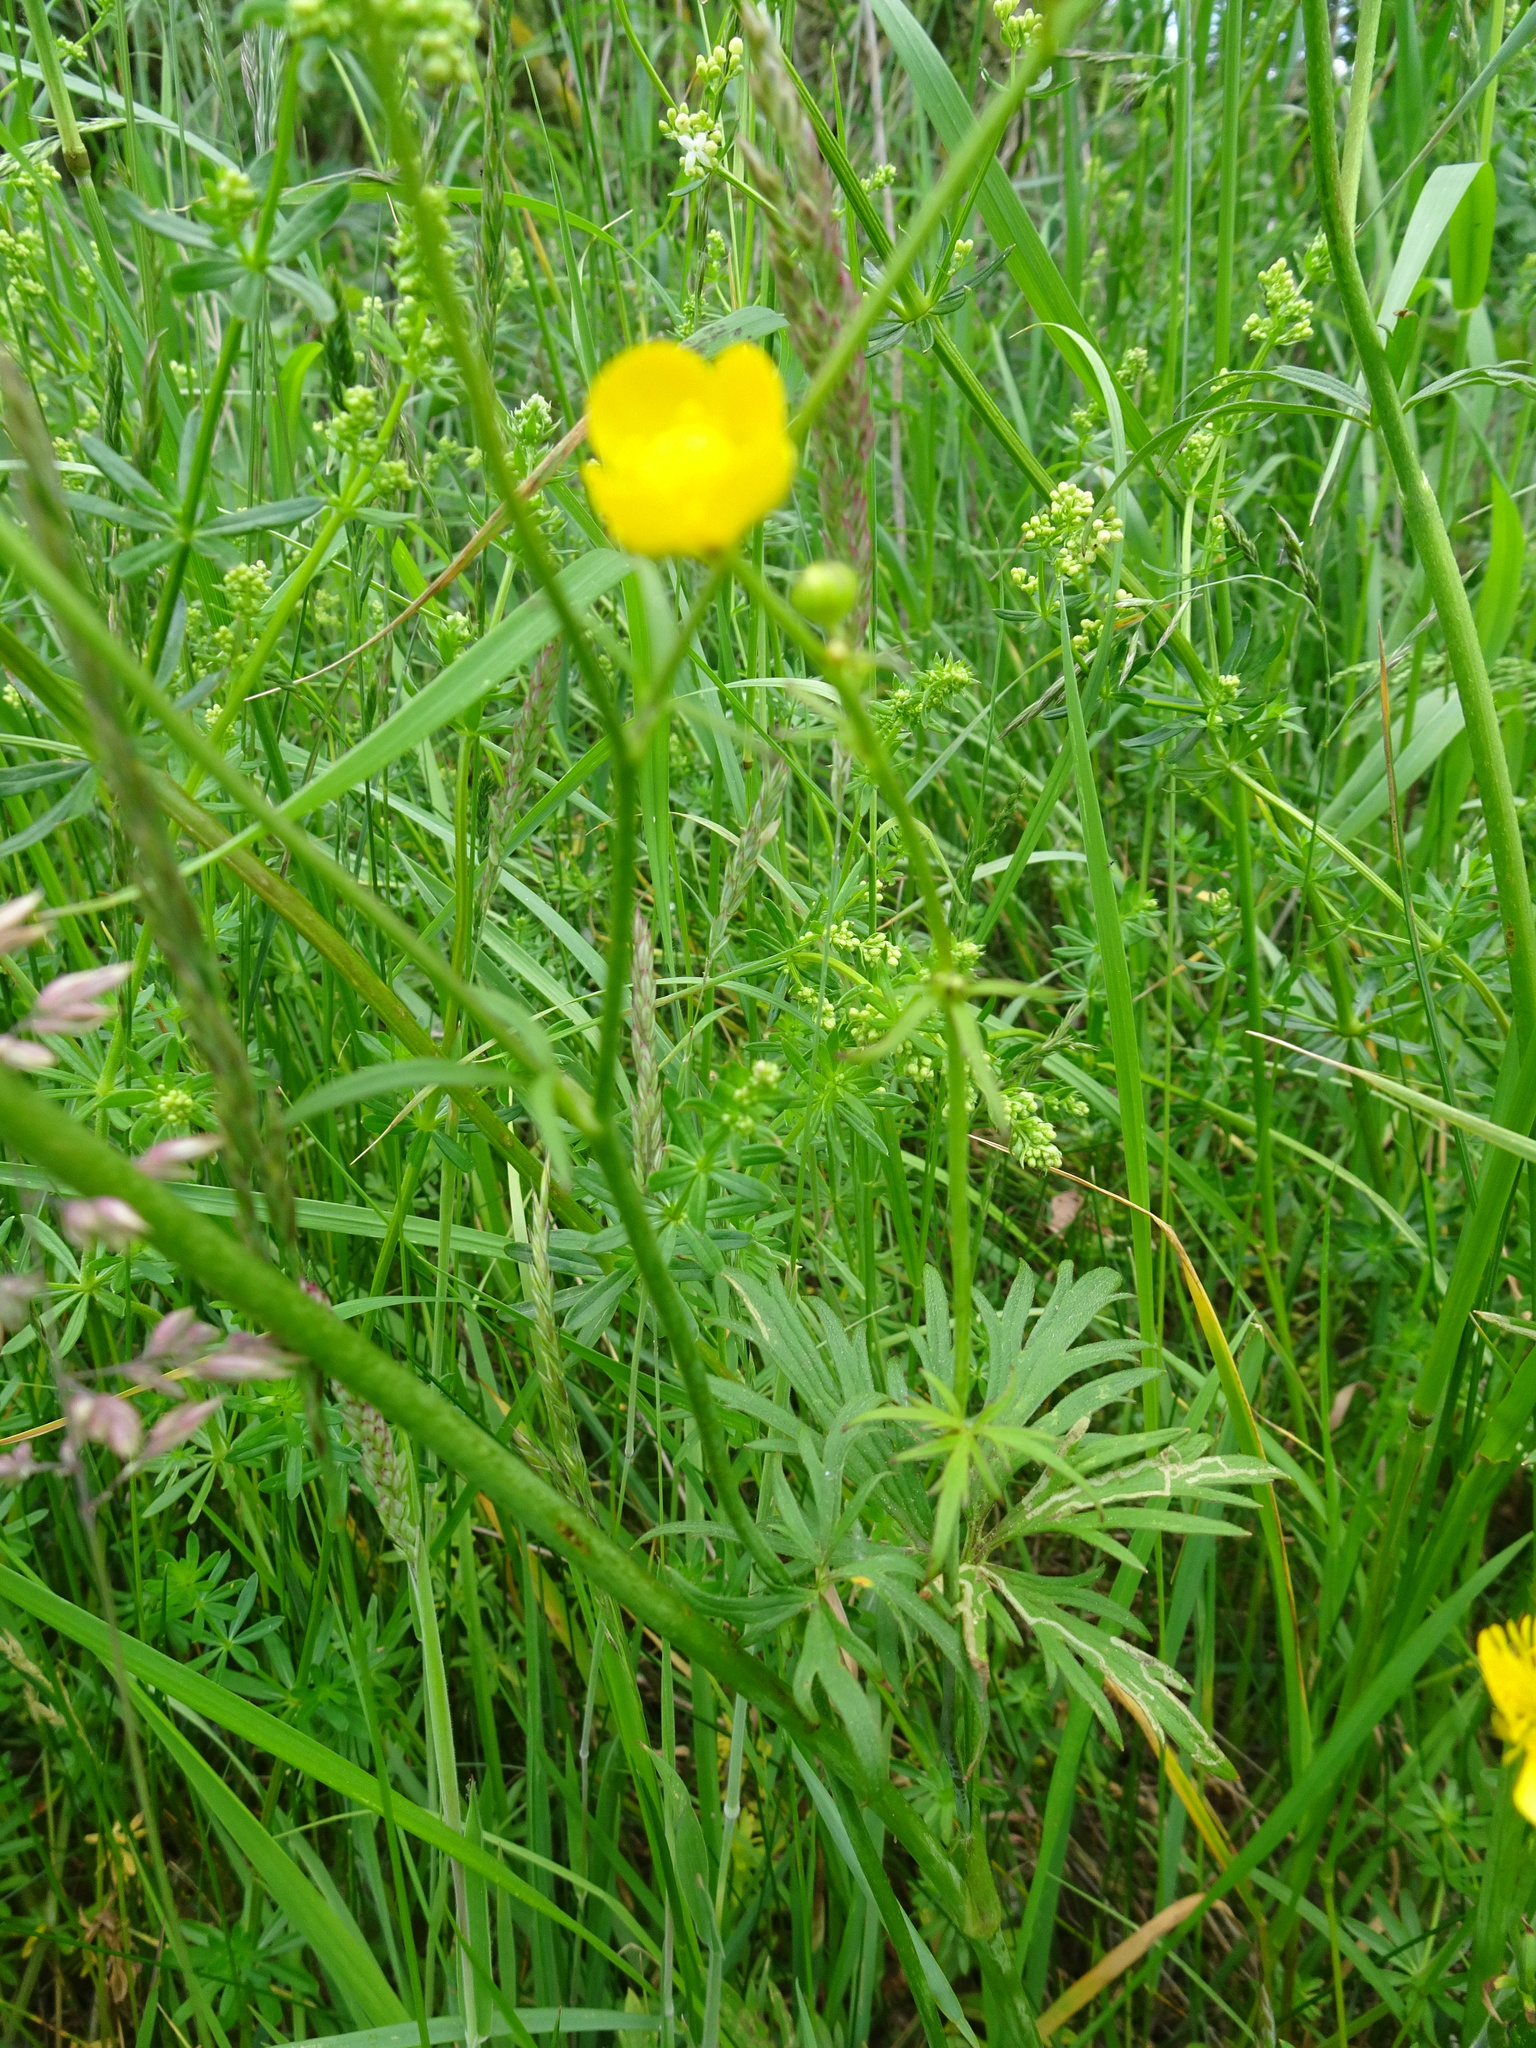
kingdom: Plantae
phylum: Tracheophyta
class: Magnoliopsida
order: Ranunculales
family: Ranunculaceae
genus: Ranunculus
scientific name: Ranunculus acris
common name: Meadow buttercup
